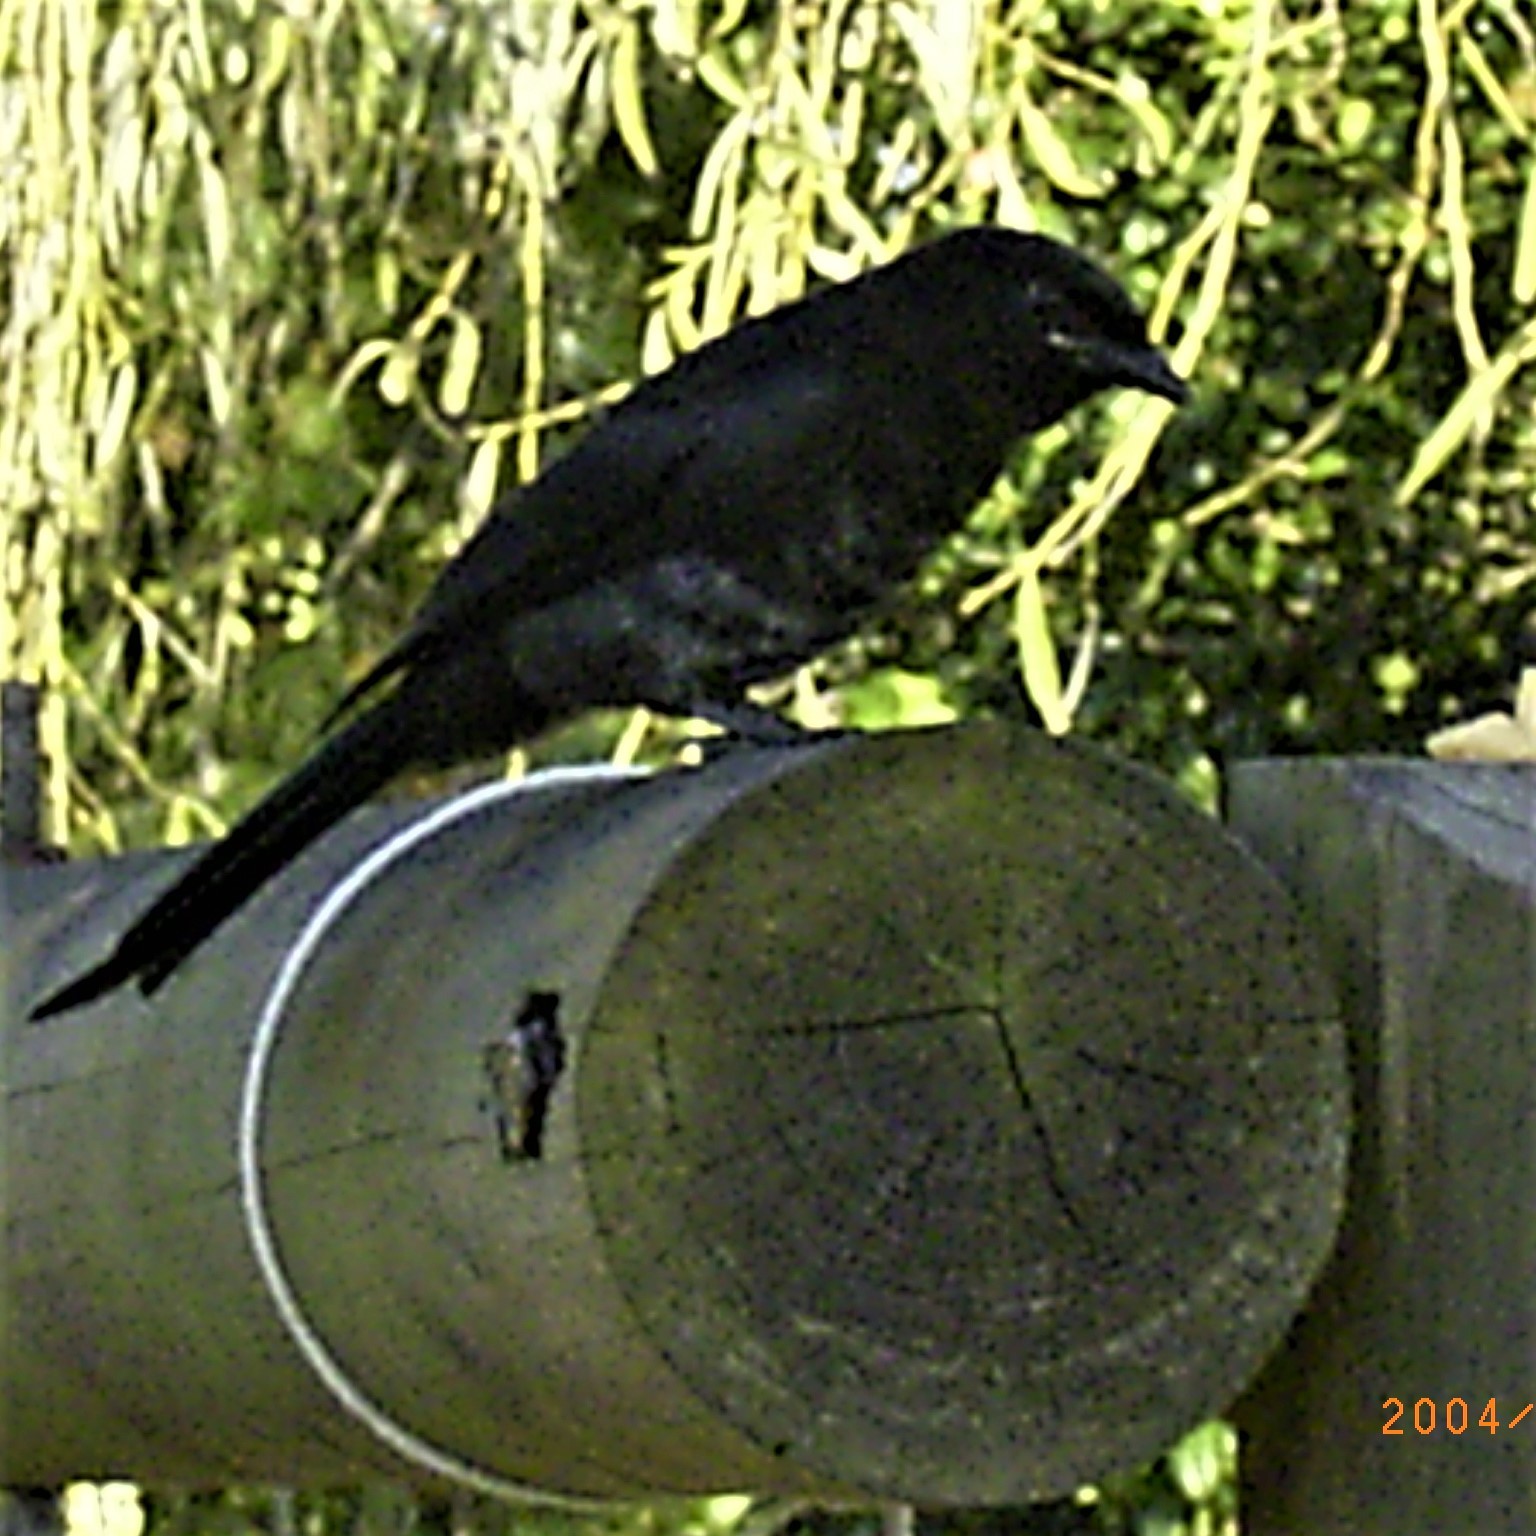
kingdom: Animalia
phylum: Chordata
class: Aves
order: Passeriformes
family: Dicruridae
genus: Dicrurus
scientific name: Dicrurus adsimilis
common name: Fork-tailed drongo
